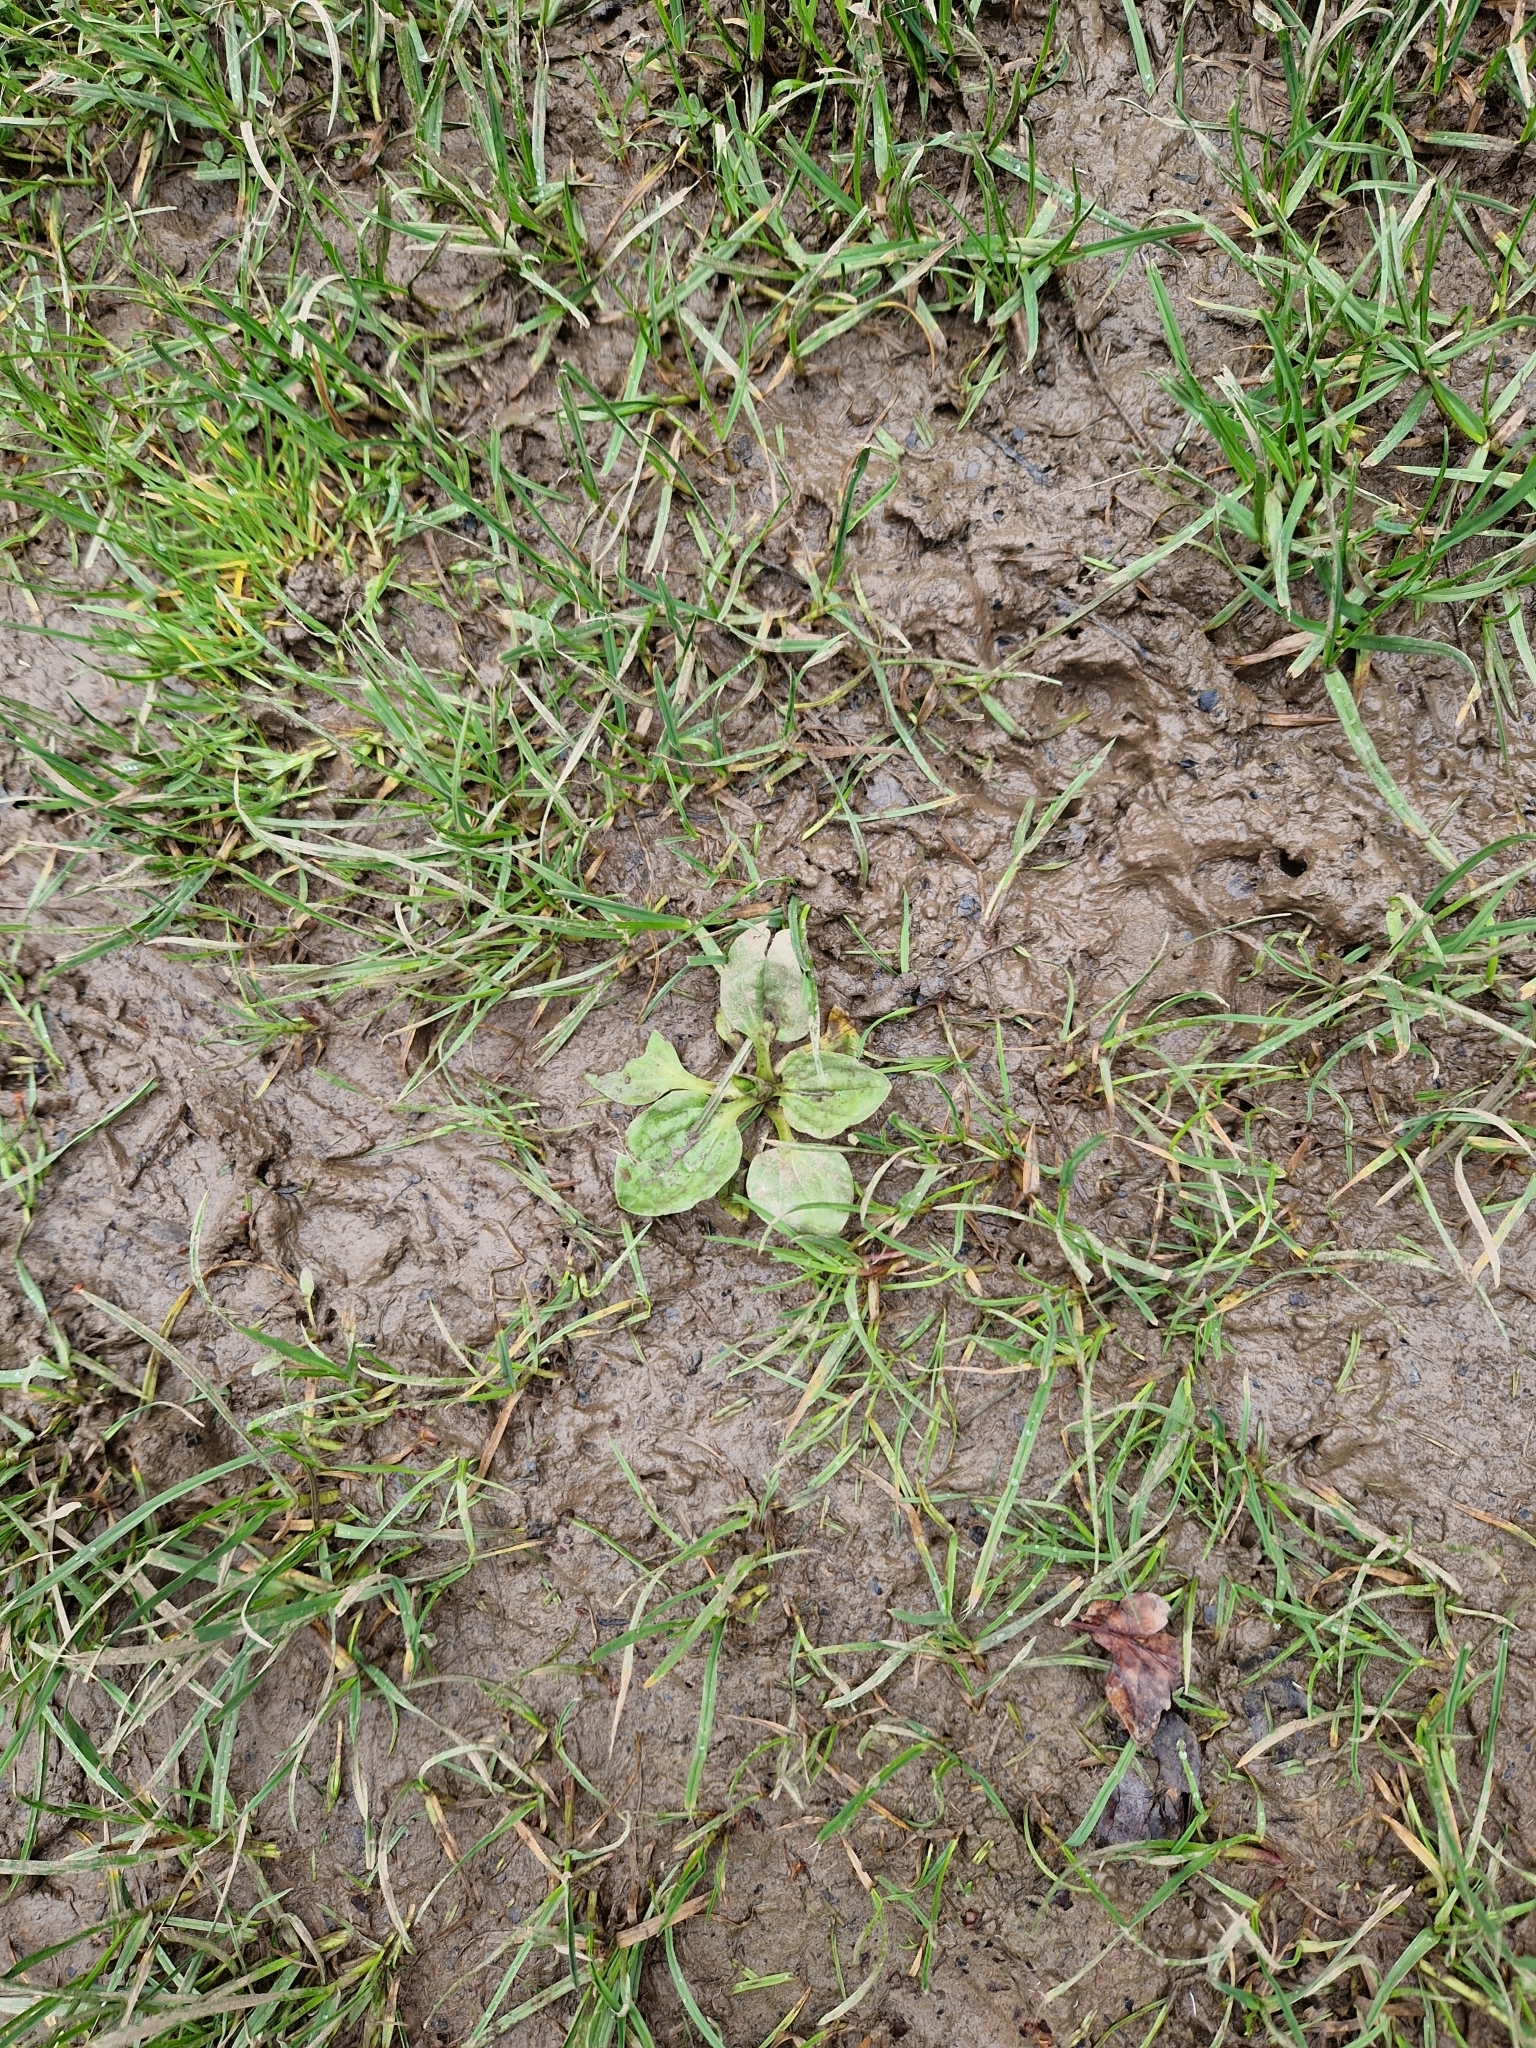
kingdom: Plantae
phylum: Tracheophyta
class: Magnoliopsida
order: Lamiales
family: Plantaginaceae
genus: Plantago
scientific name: Plantago major
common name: Common plantain
